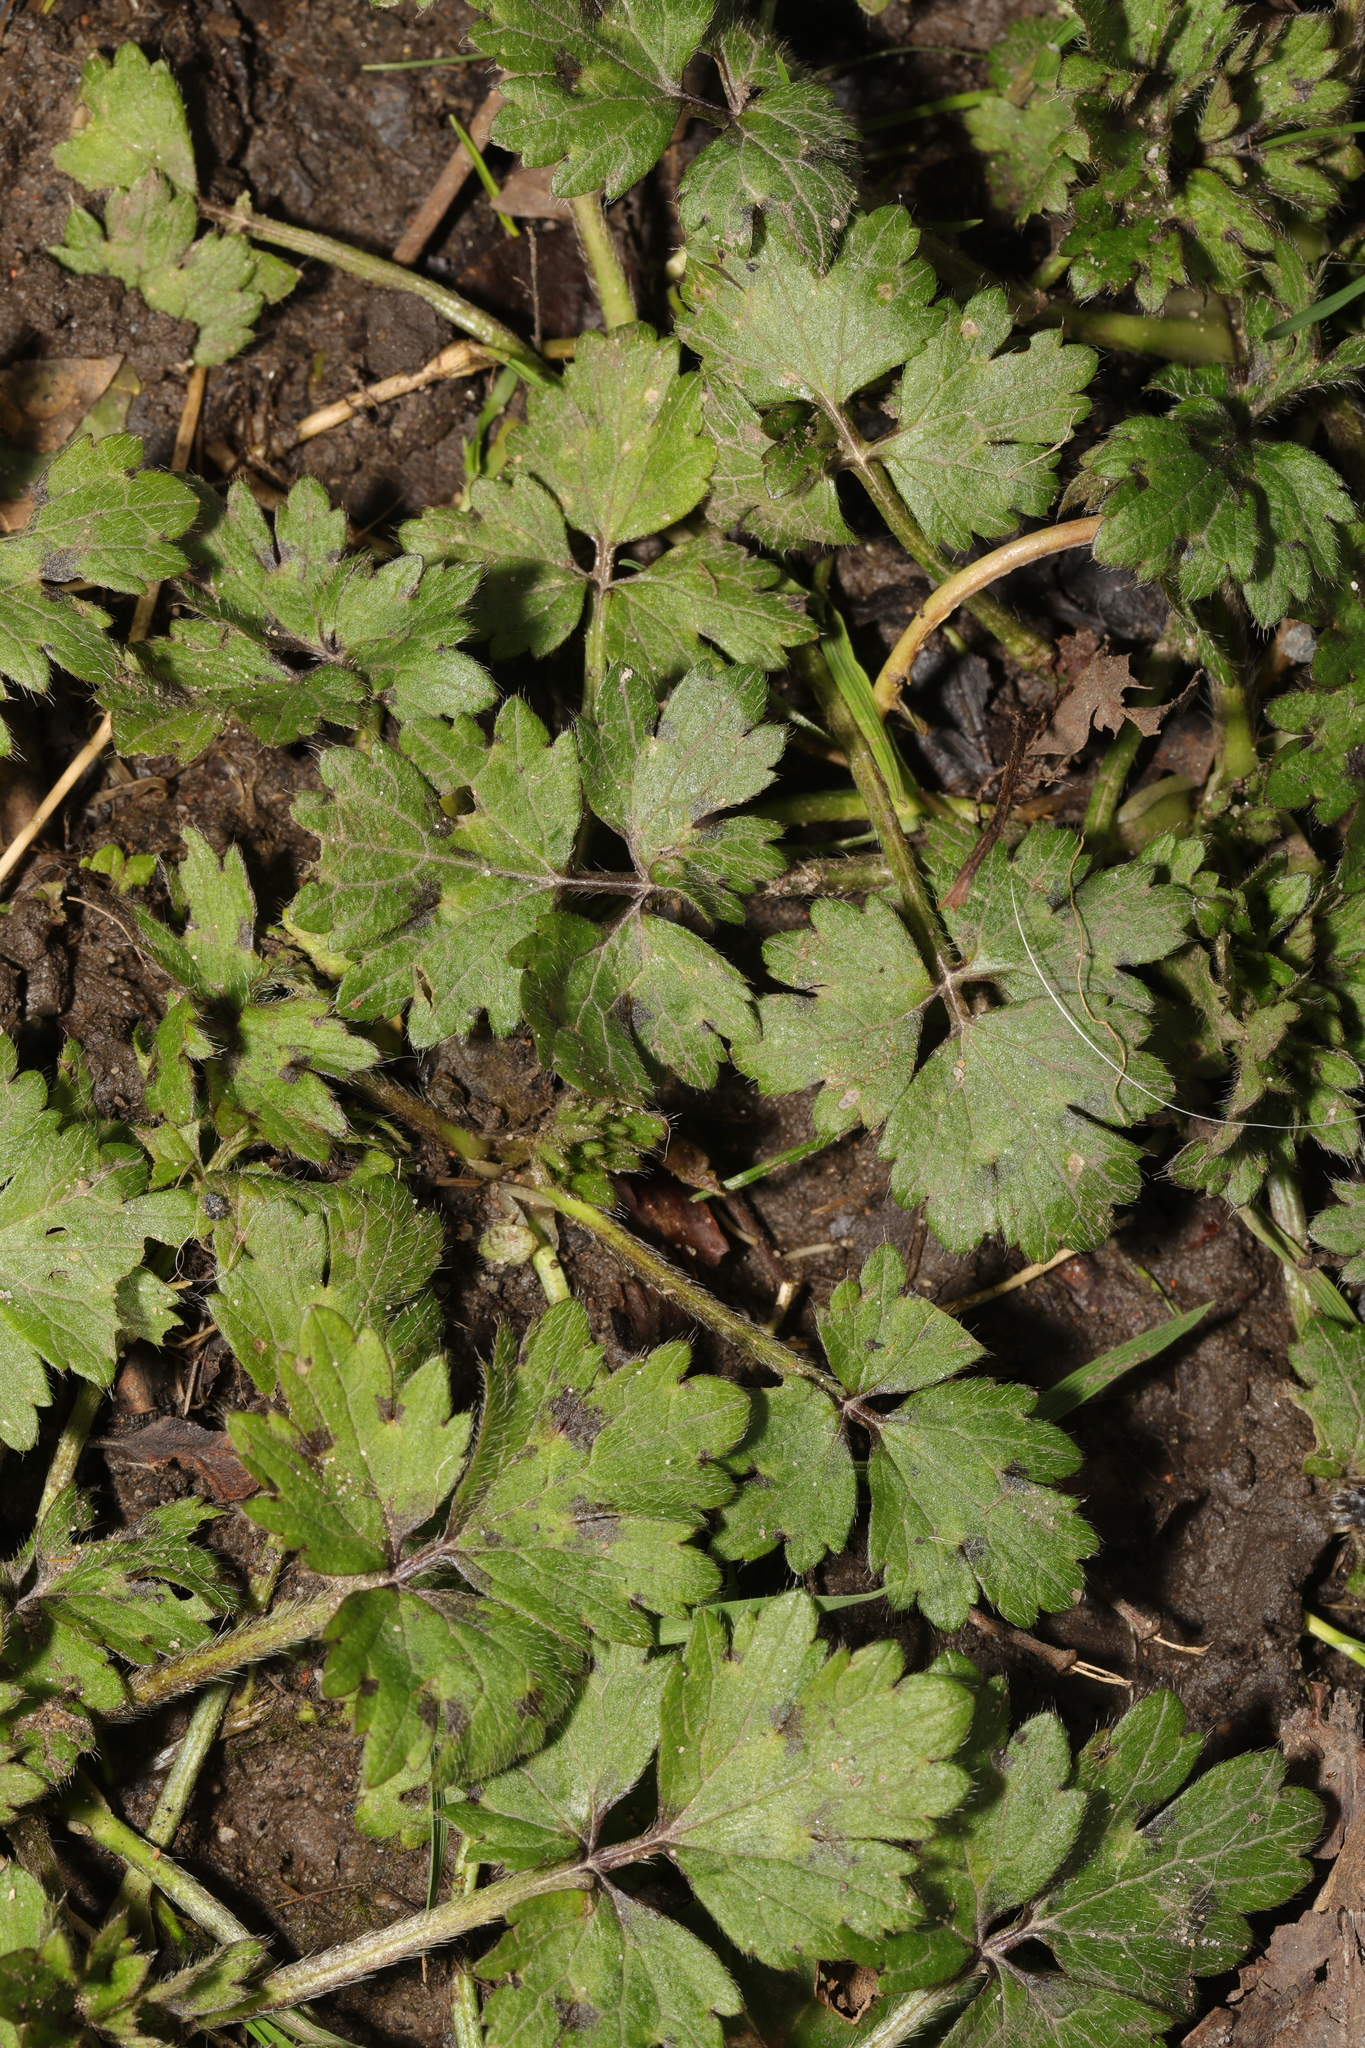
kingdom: Plantae
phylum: Tracheophyta
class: Magnoliopsida
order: Ranunculales
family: Ranunculaceae
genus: Ranunculus
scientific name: Ranunculus repens
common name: Creeping buttercup
